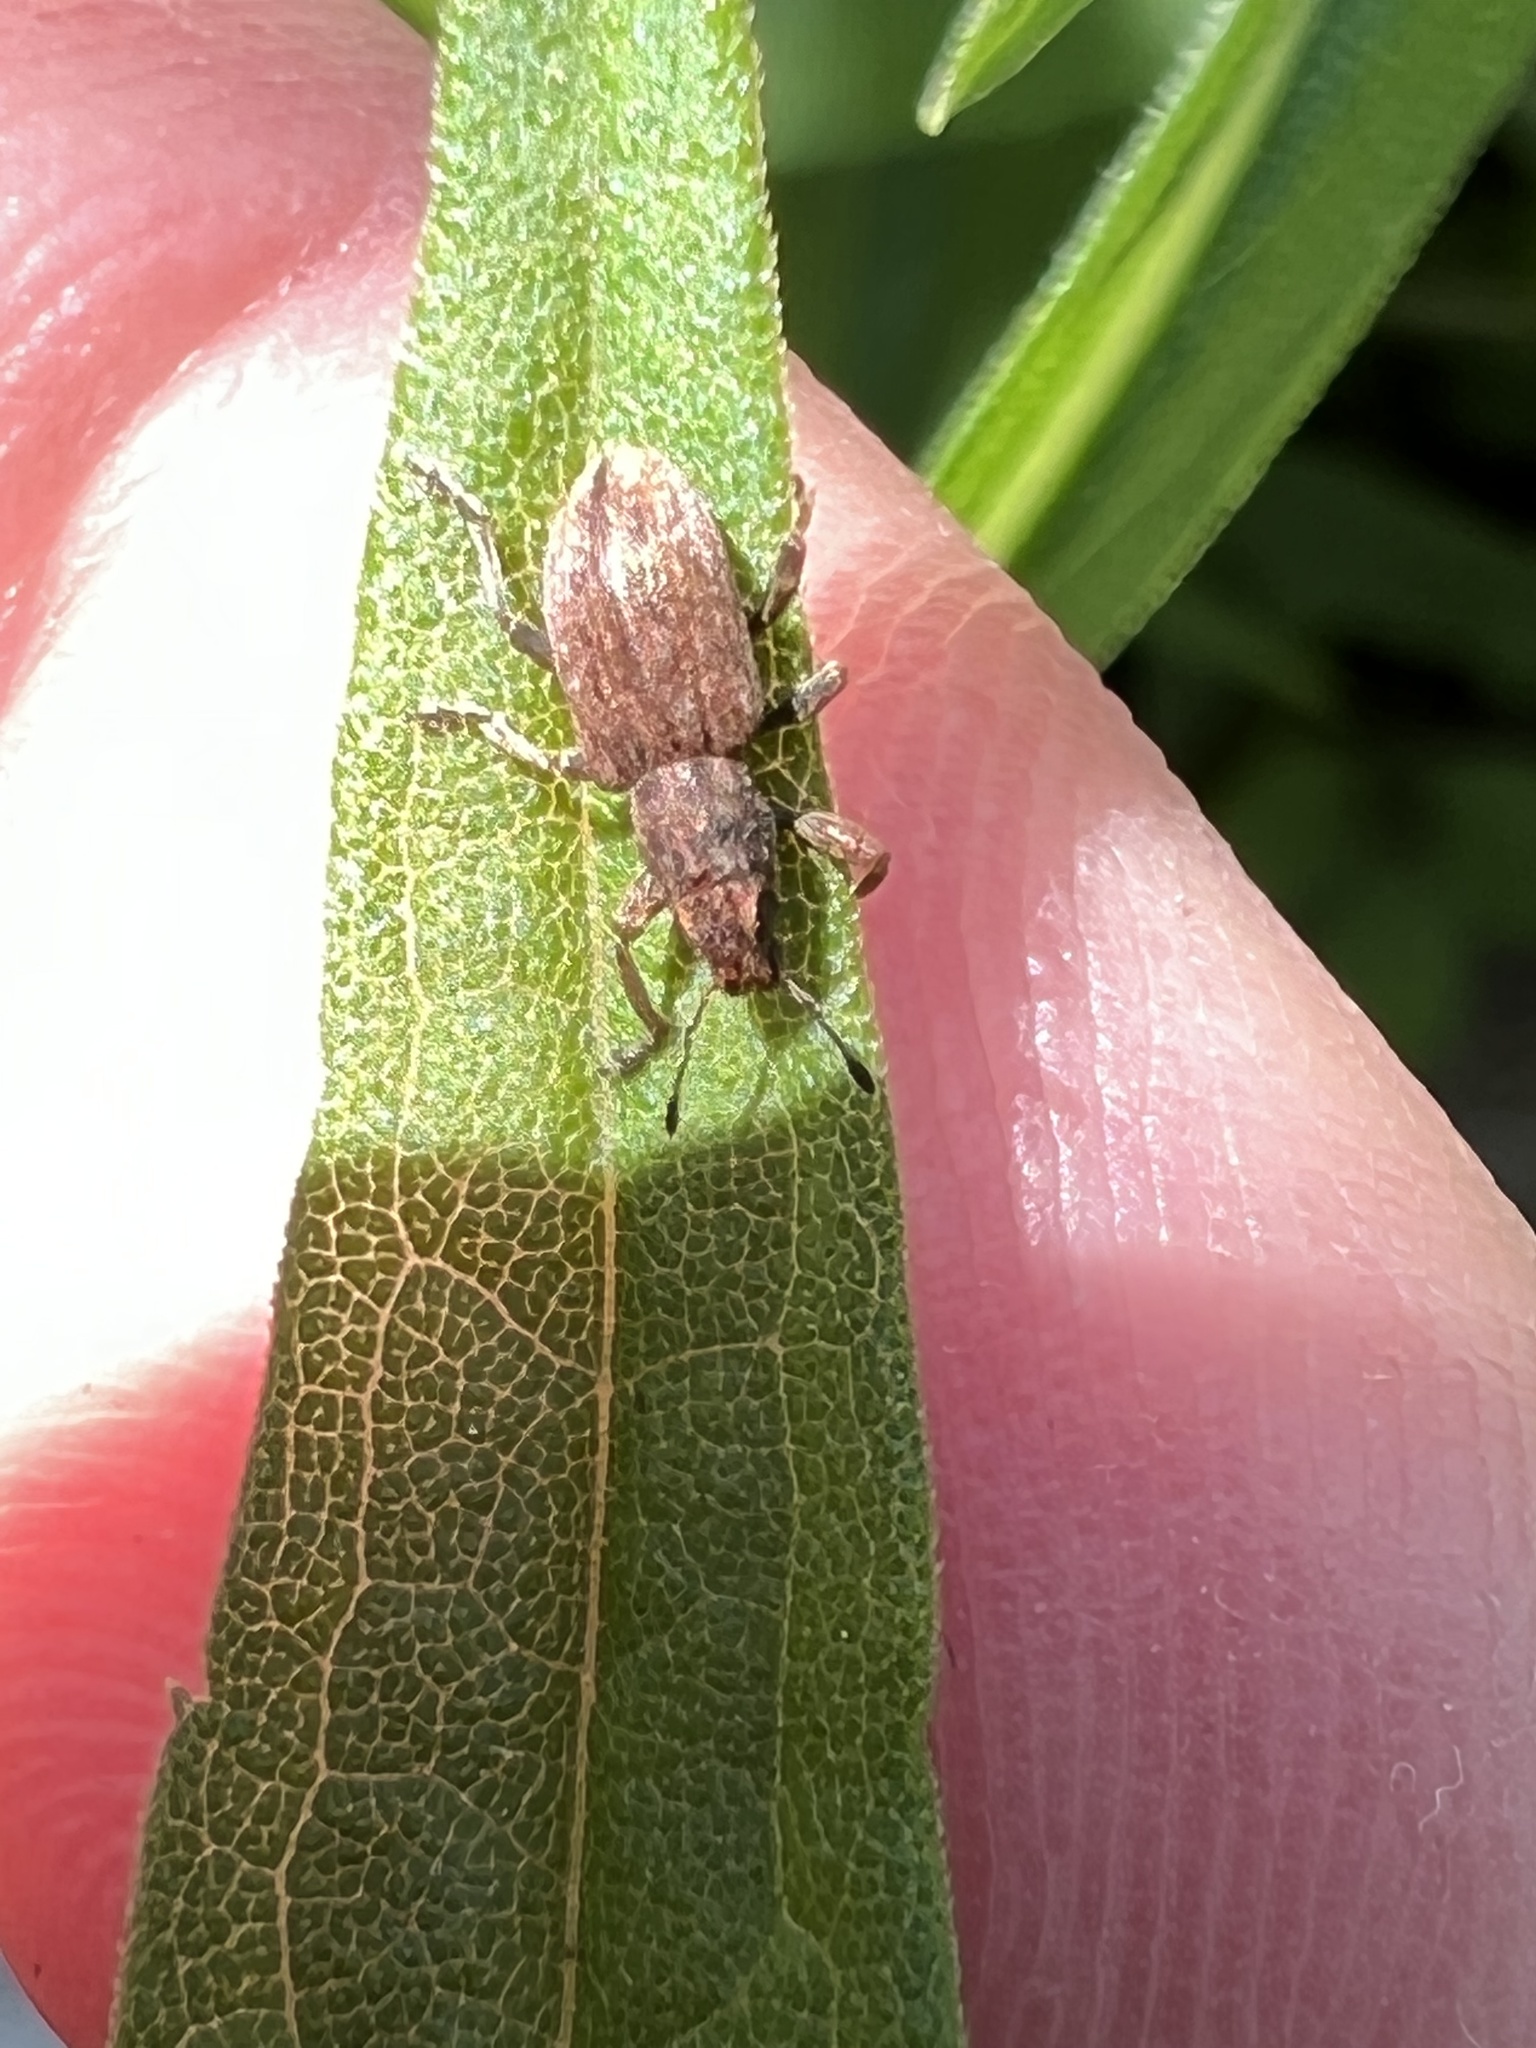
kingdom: Animalia
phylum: Arthropoda
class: Insecta
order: Coleoptera
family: Curculionidae
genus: Sitona
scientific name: Sitona obsoletus
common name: Weevil
